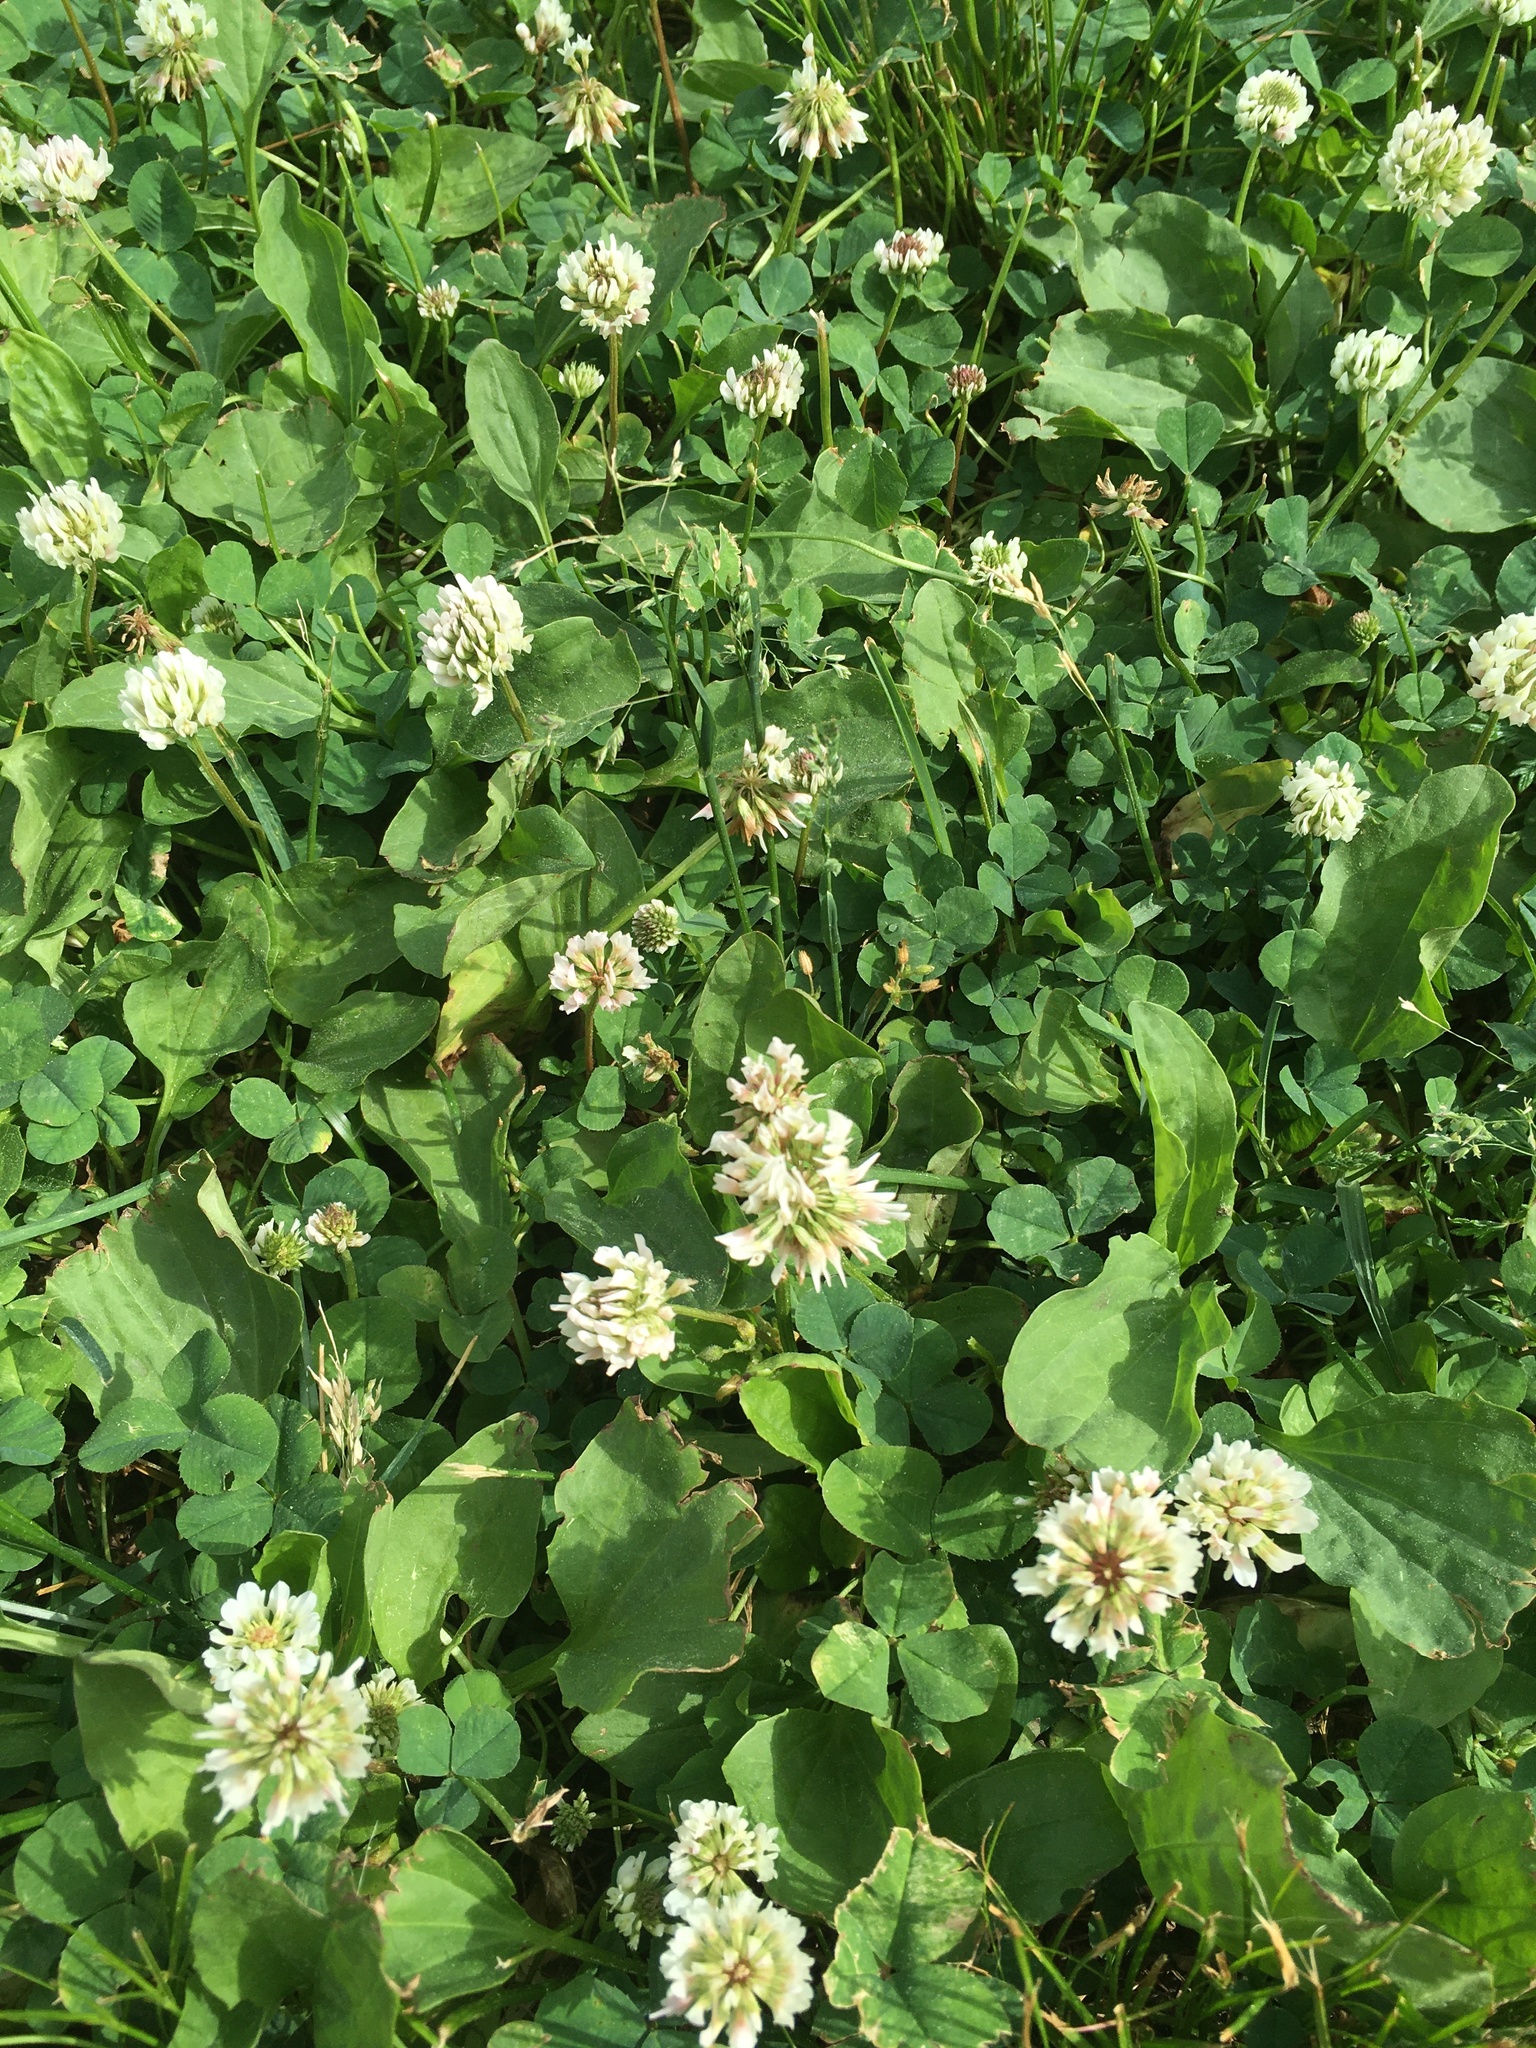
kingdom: Plantae
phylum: Tracheophyta
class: Magnoliopsida
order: Fabales
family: Fabaceae
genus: Trifolium
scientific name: Trifolium repens
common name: White clover
